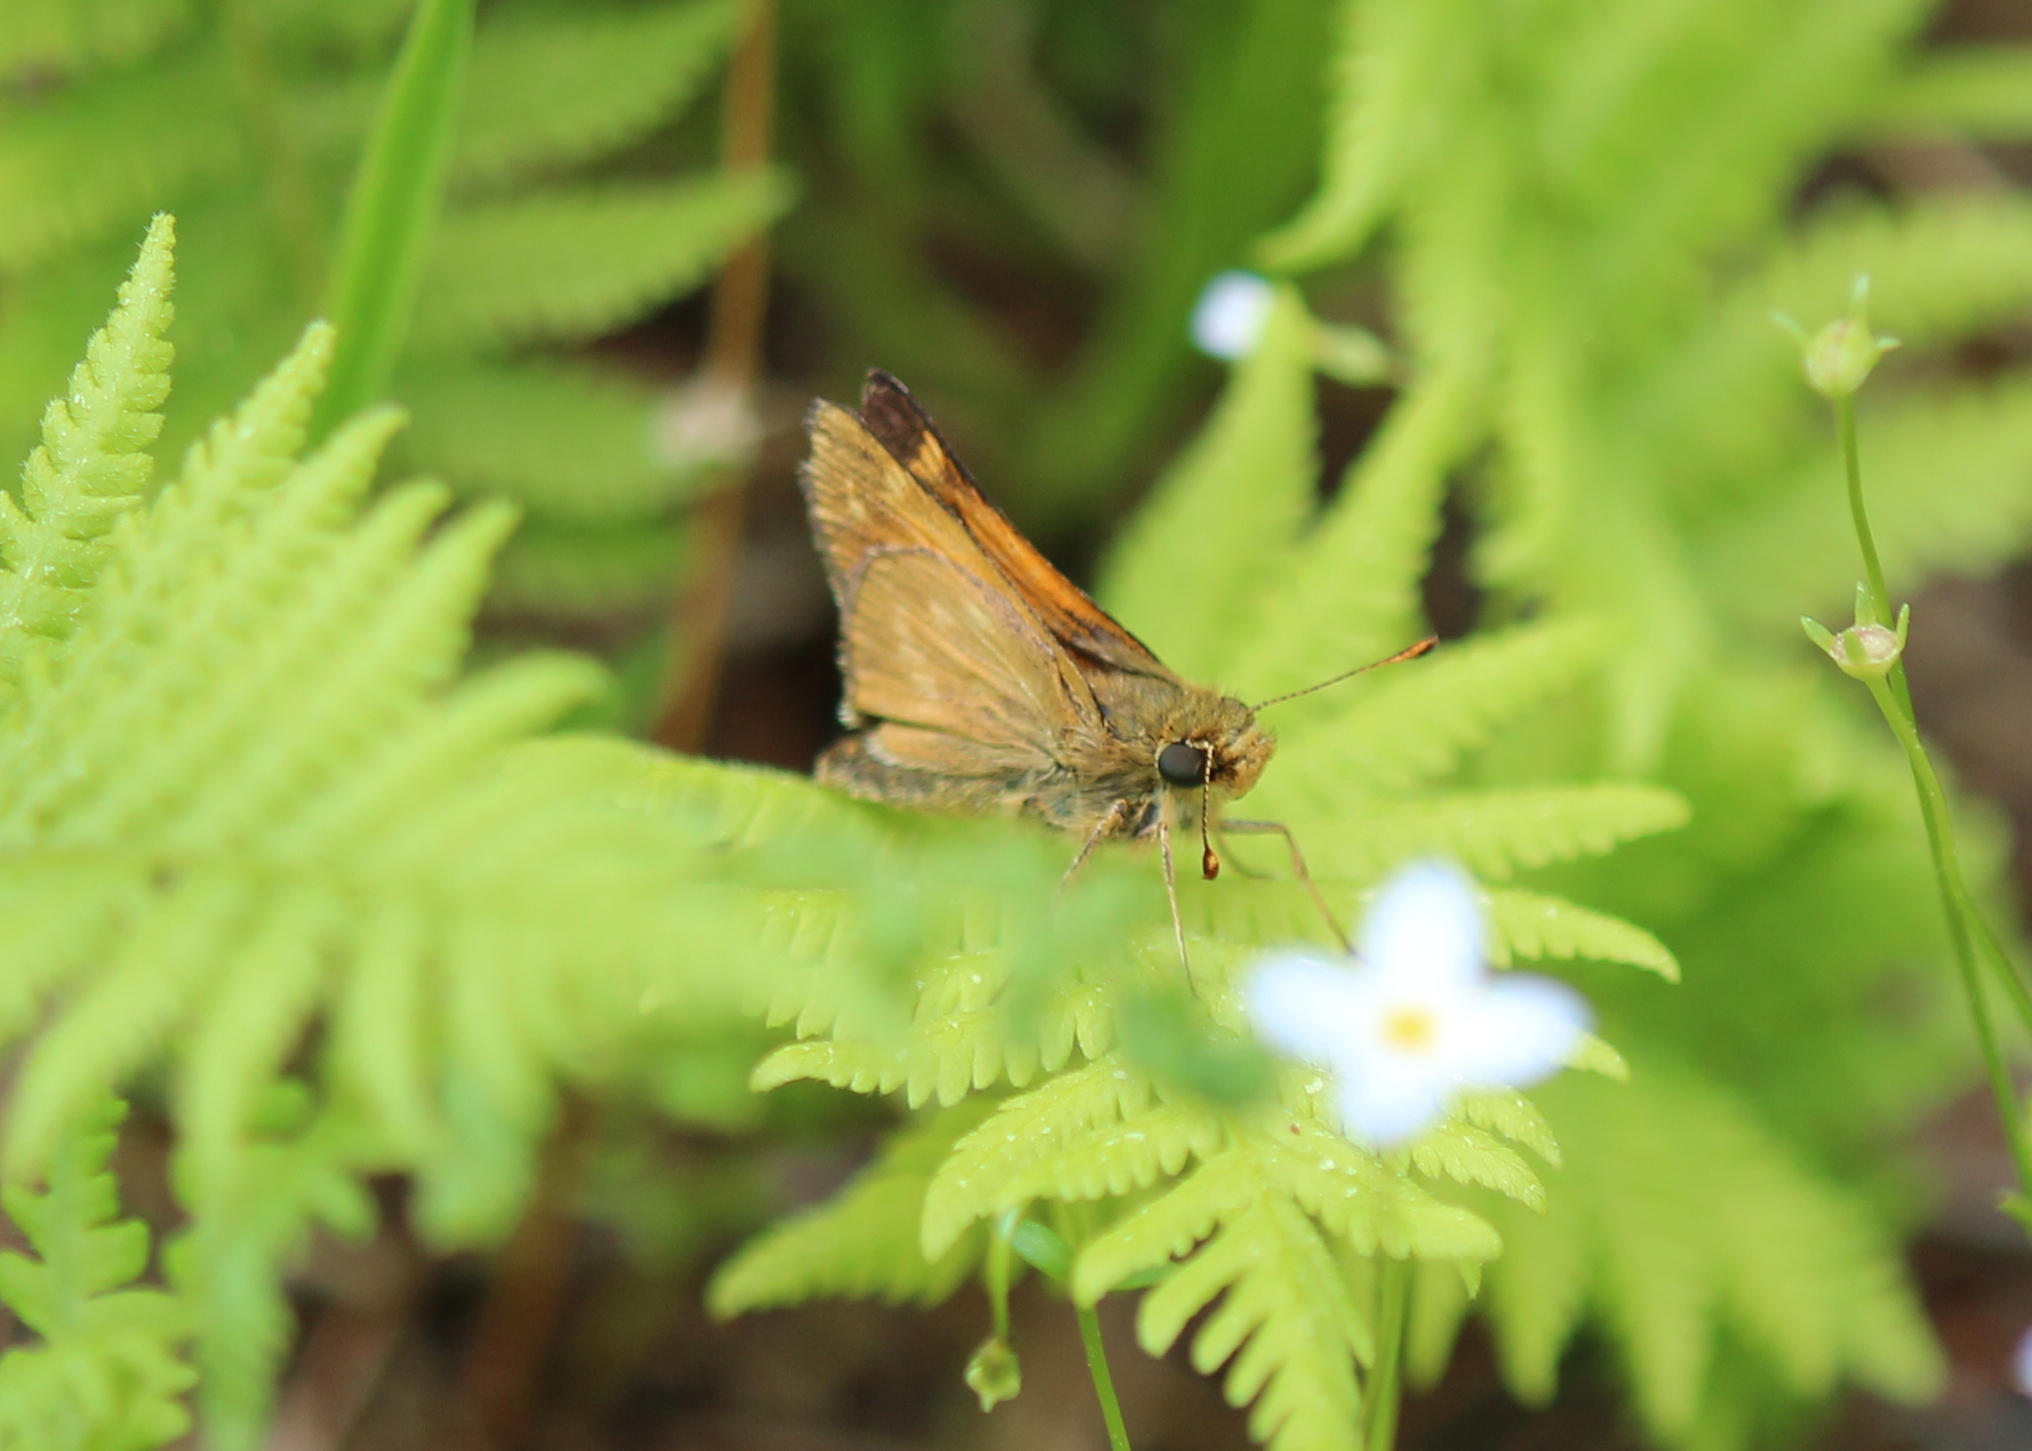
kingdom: Animalia
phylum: Arthropoda
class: Insecta
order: Lepidoptera
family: Hesperiidae
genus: Hesperia
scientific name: Hesperia sassacus
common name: Indian skipper
